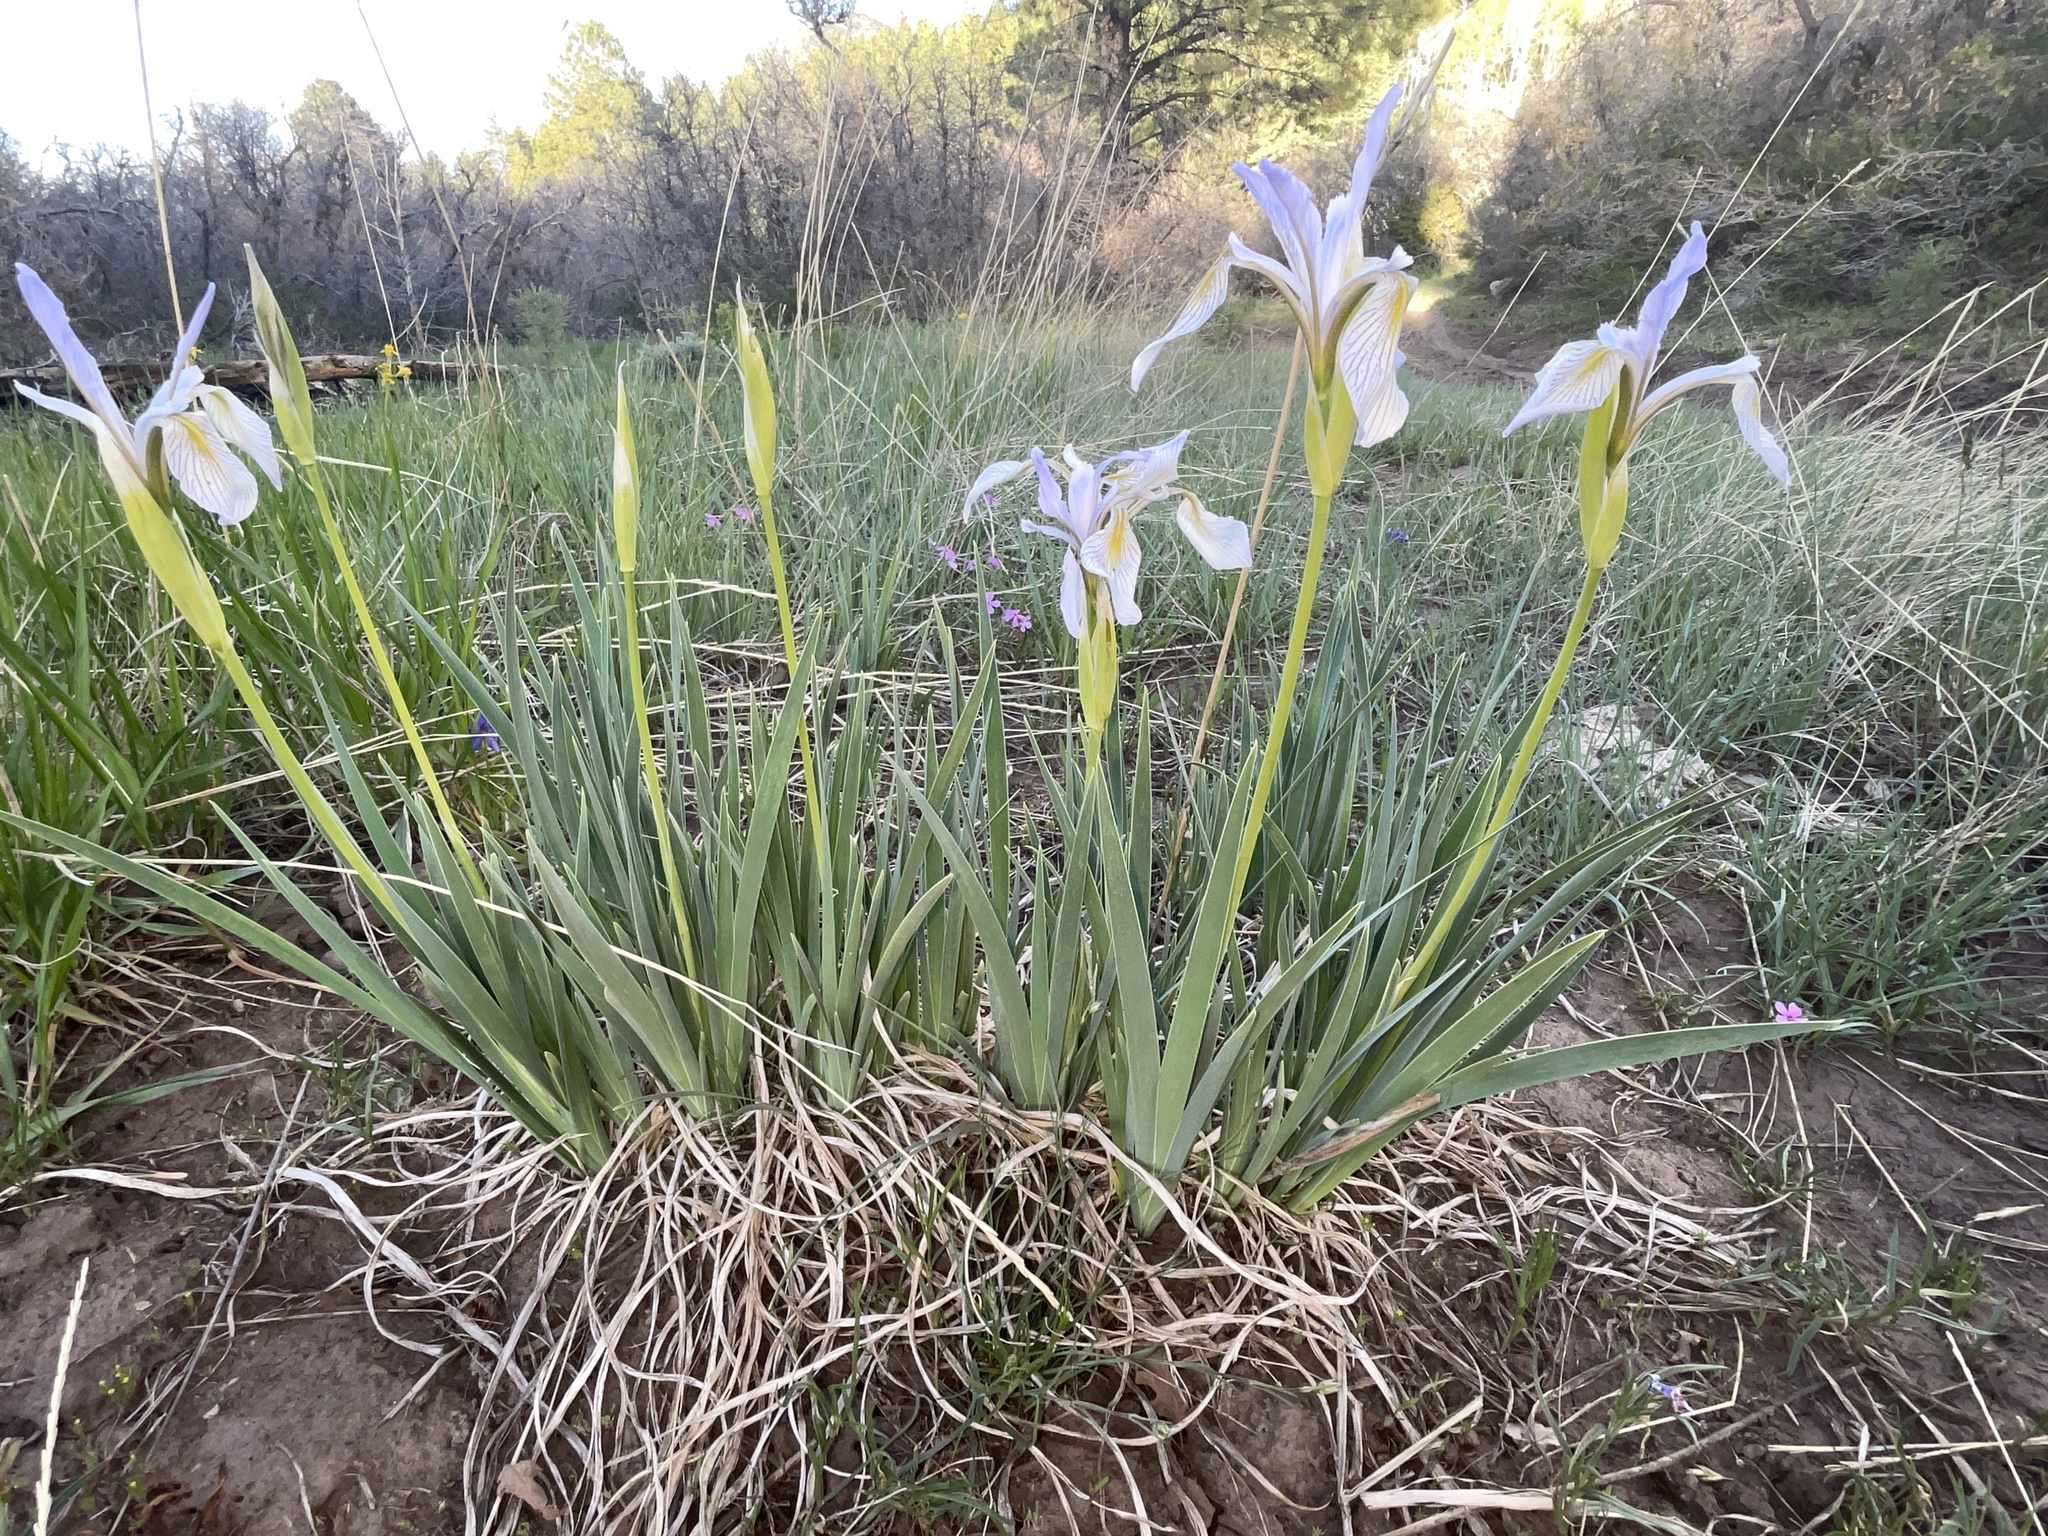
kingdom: Plantae
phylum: Tracheophyta
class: Liliopsida
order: Asparagales
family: Iridaceae
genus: Iris
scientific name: Iris missouriensis
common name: Rocky mountain iris
